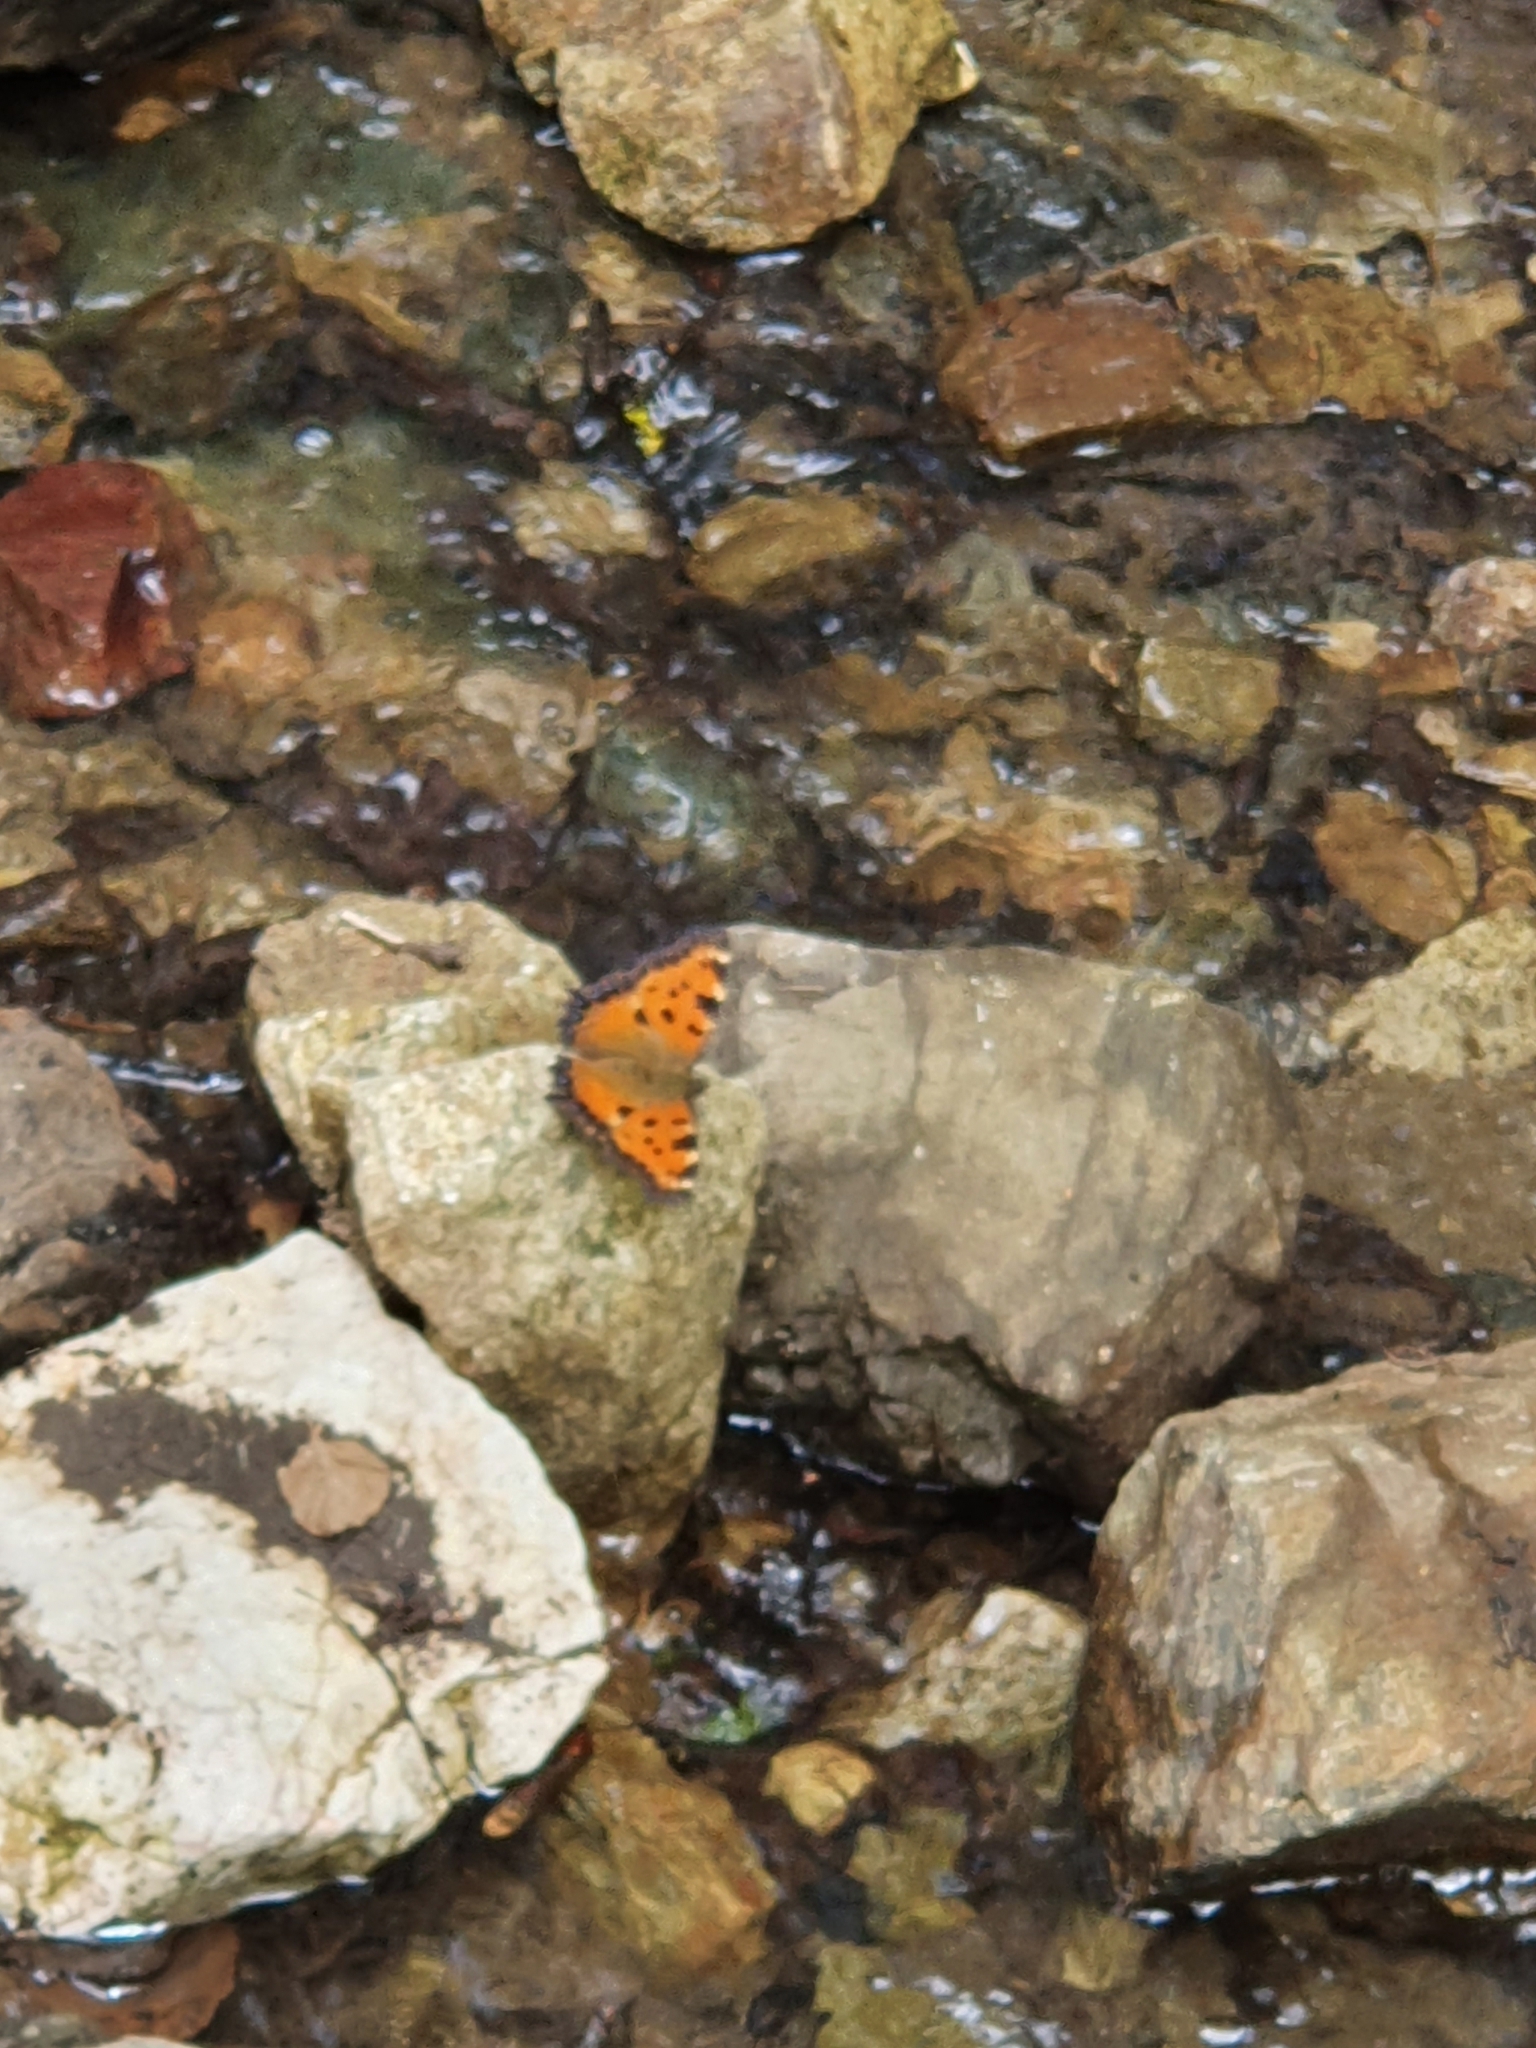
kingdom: Animalia
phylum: Arthropoda
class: Insecta
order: Lepidoptera
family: Nymphalidae
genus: Nymphalis
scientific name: Nymphalis polychloros
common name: Large tortoiseshell
